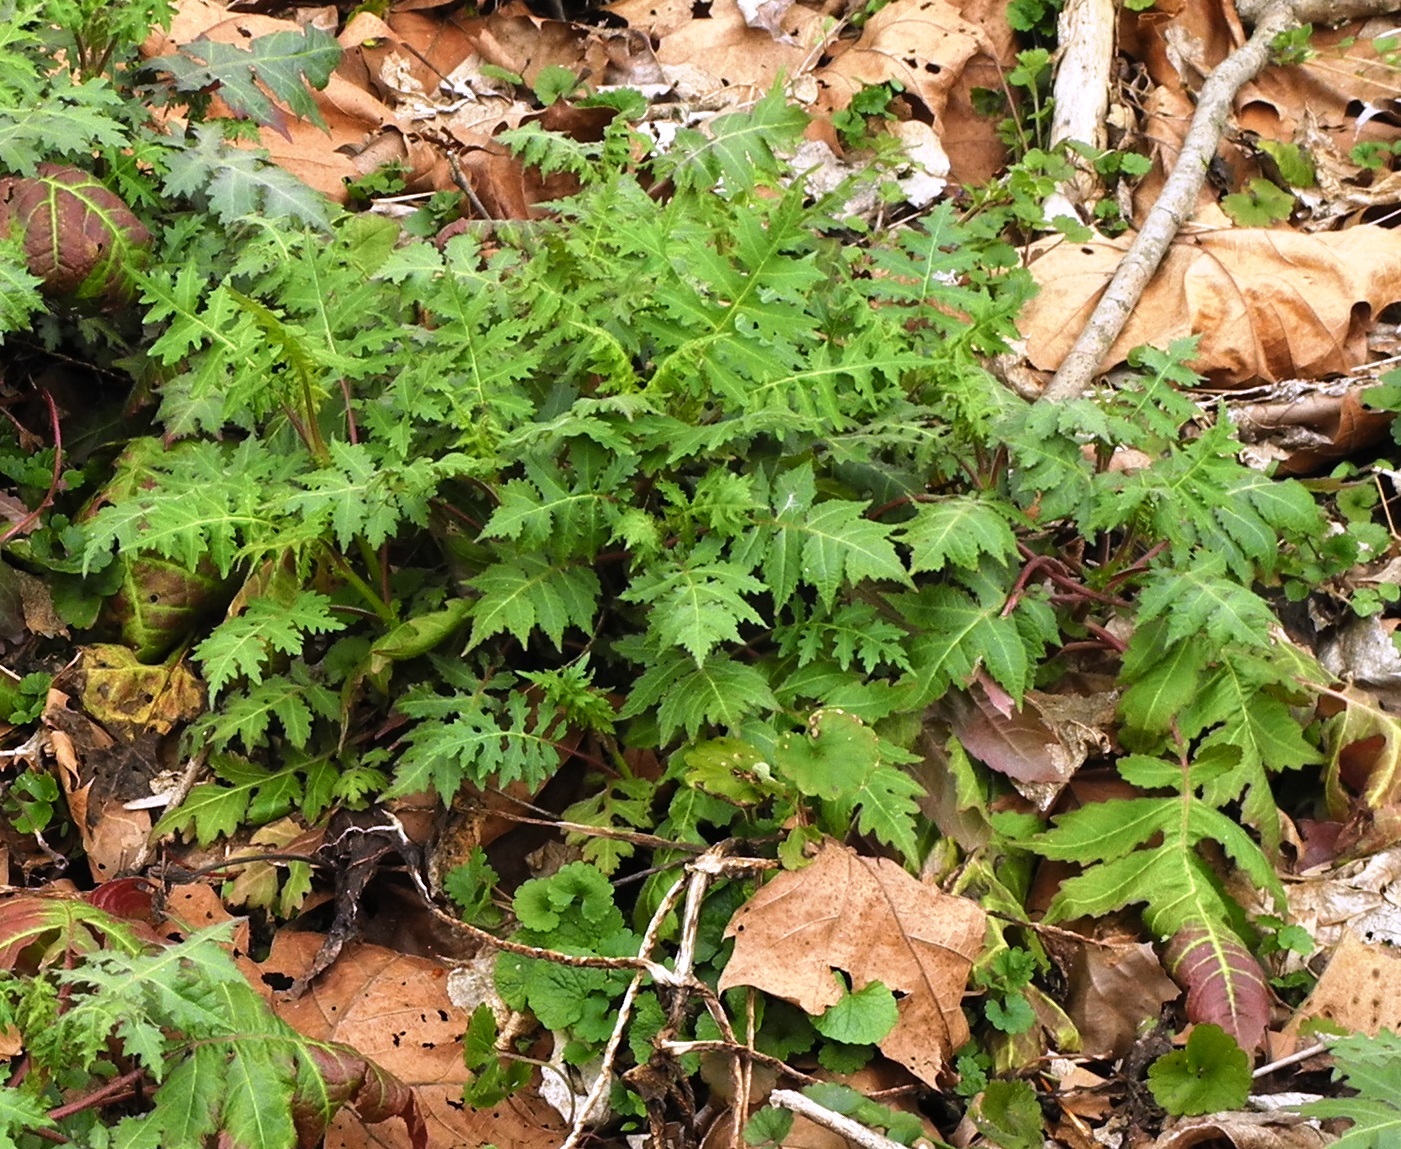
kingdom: Plantae
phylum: Tracheophyta
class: Magnoliopsida
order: Asterales
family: Asteraceae
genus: Polymnia
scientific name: Polymnia canadensis
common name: Pale-flowered leafcup
